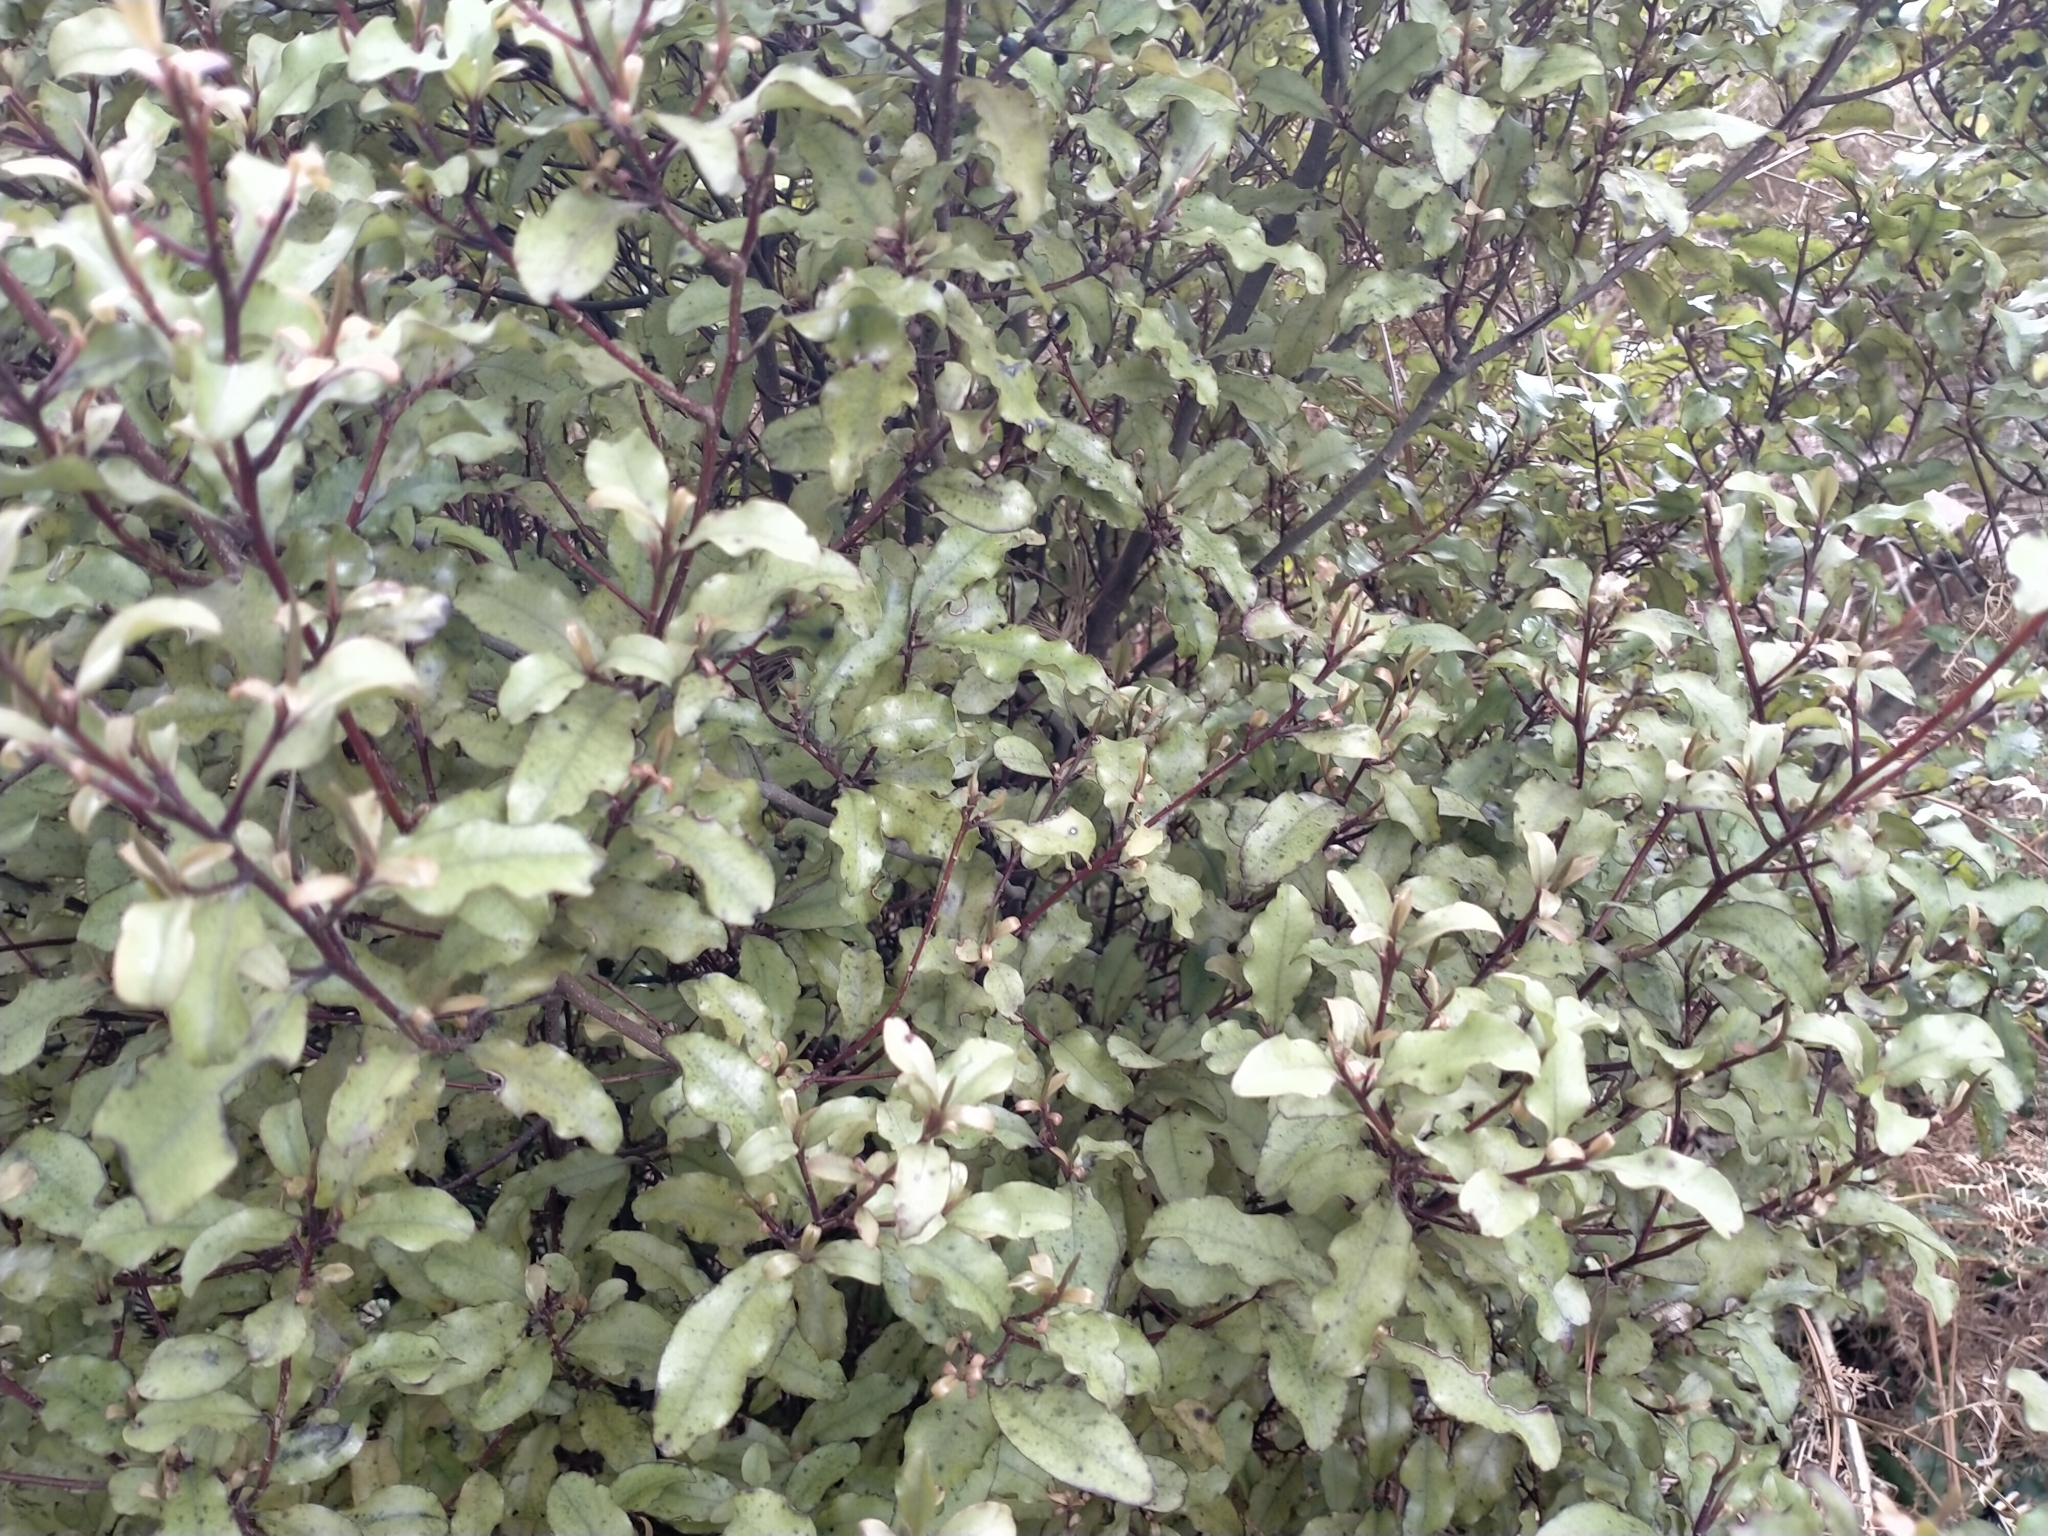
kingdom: Plantae
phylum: Tracheophyta
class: Magnoliopsida
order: Ericales
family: Primulaceae
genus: Myrsine
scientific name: Myrsine australis
